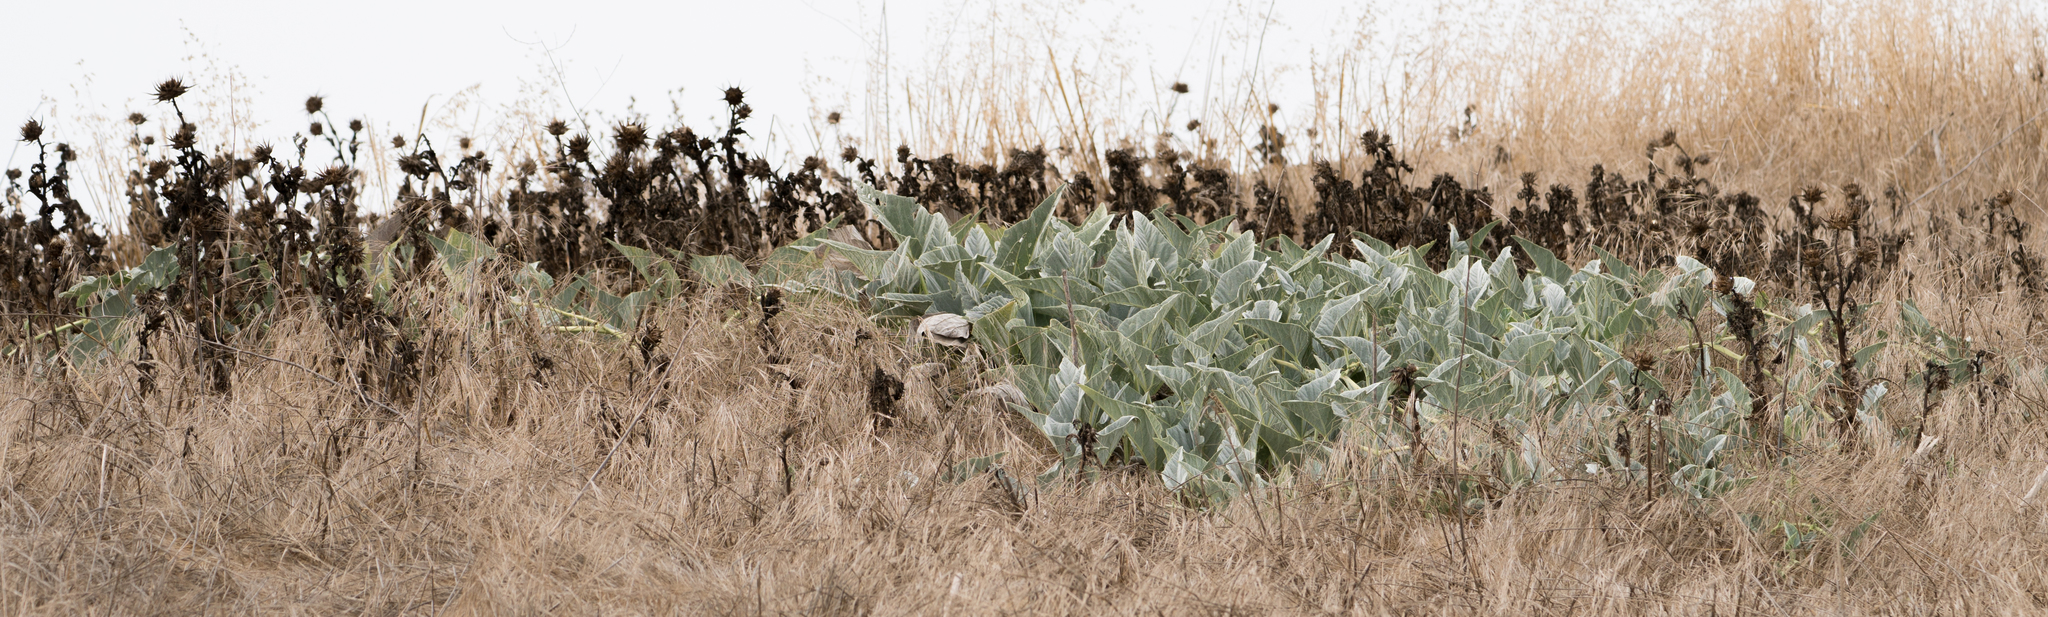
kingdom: Plantae
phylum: Tracheophyta
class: Magnoliopsida
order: Cucurbitales
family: Cucurbitaceae
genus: Cucurbita
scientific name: Cucurbita foetidissima
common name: Buffalo gourd
